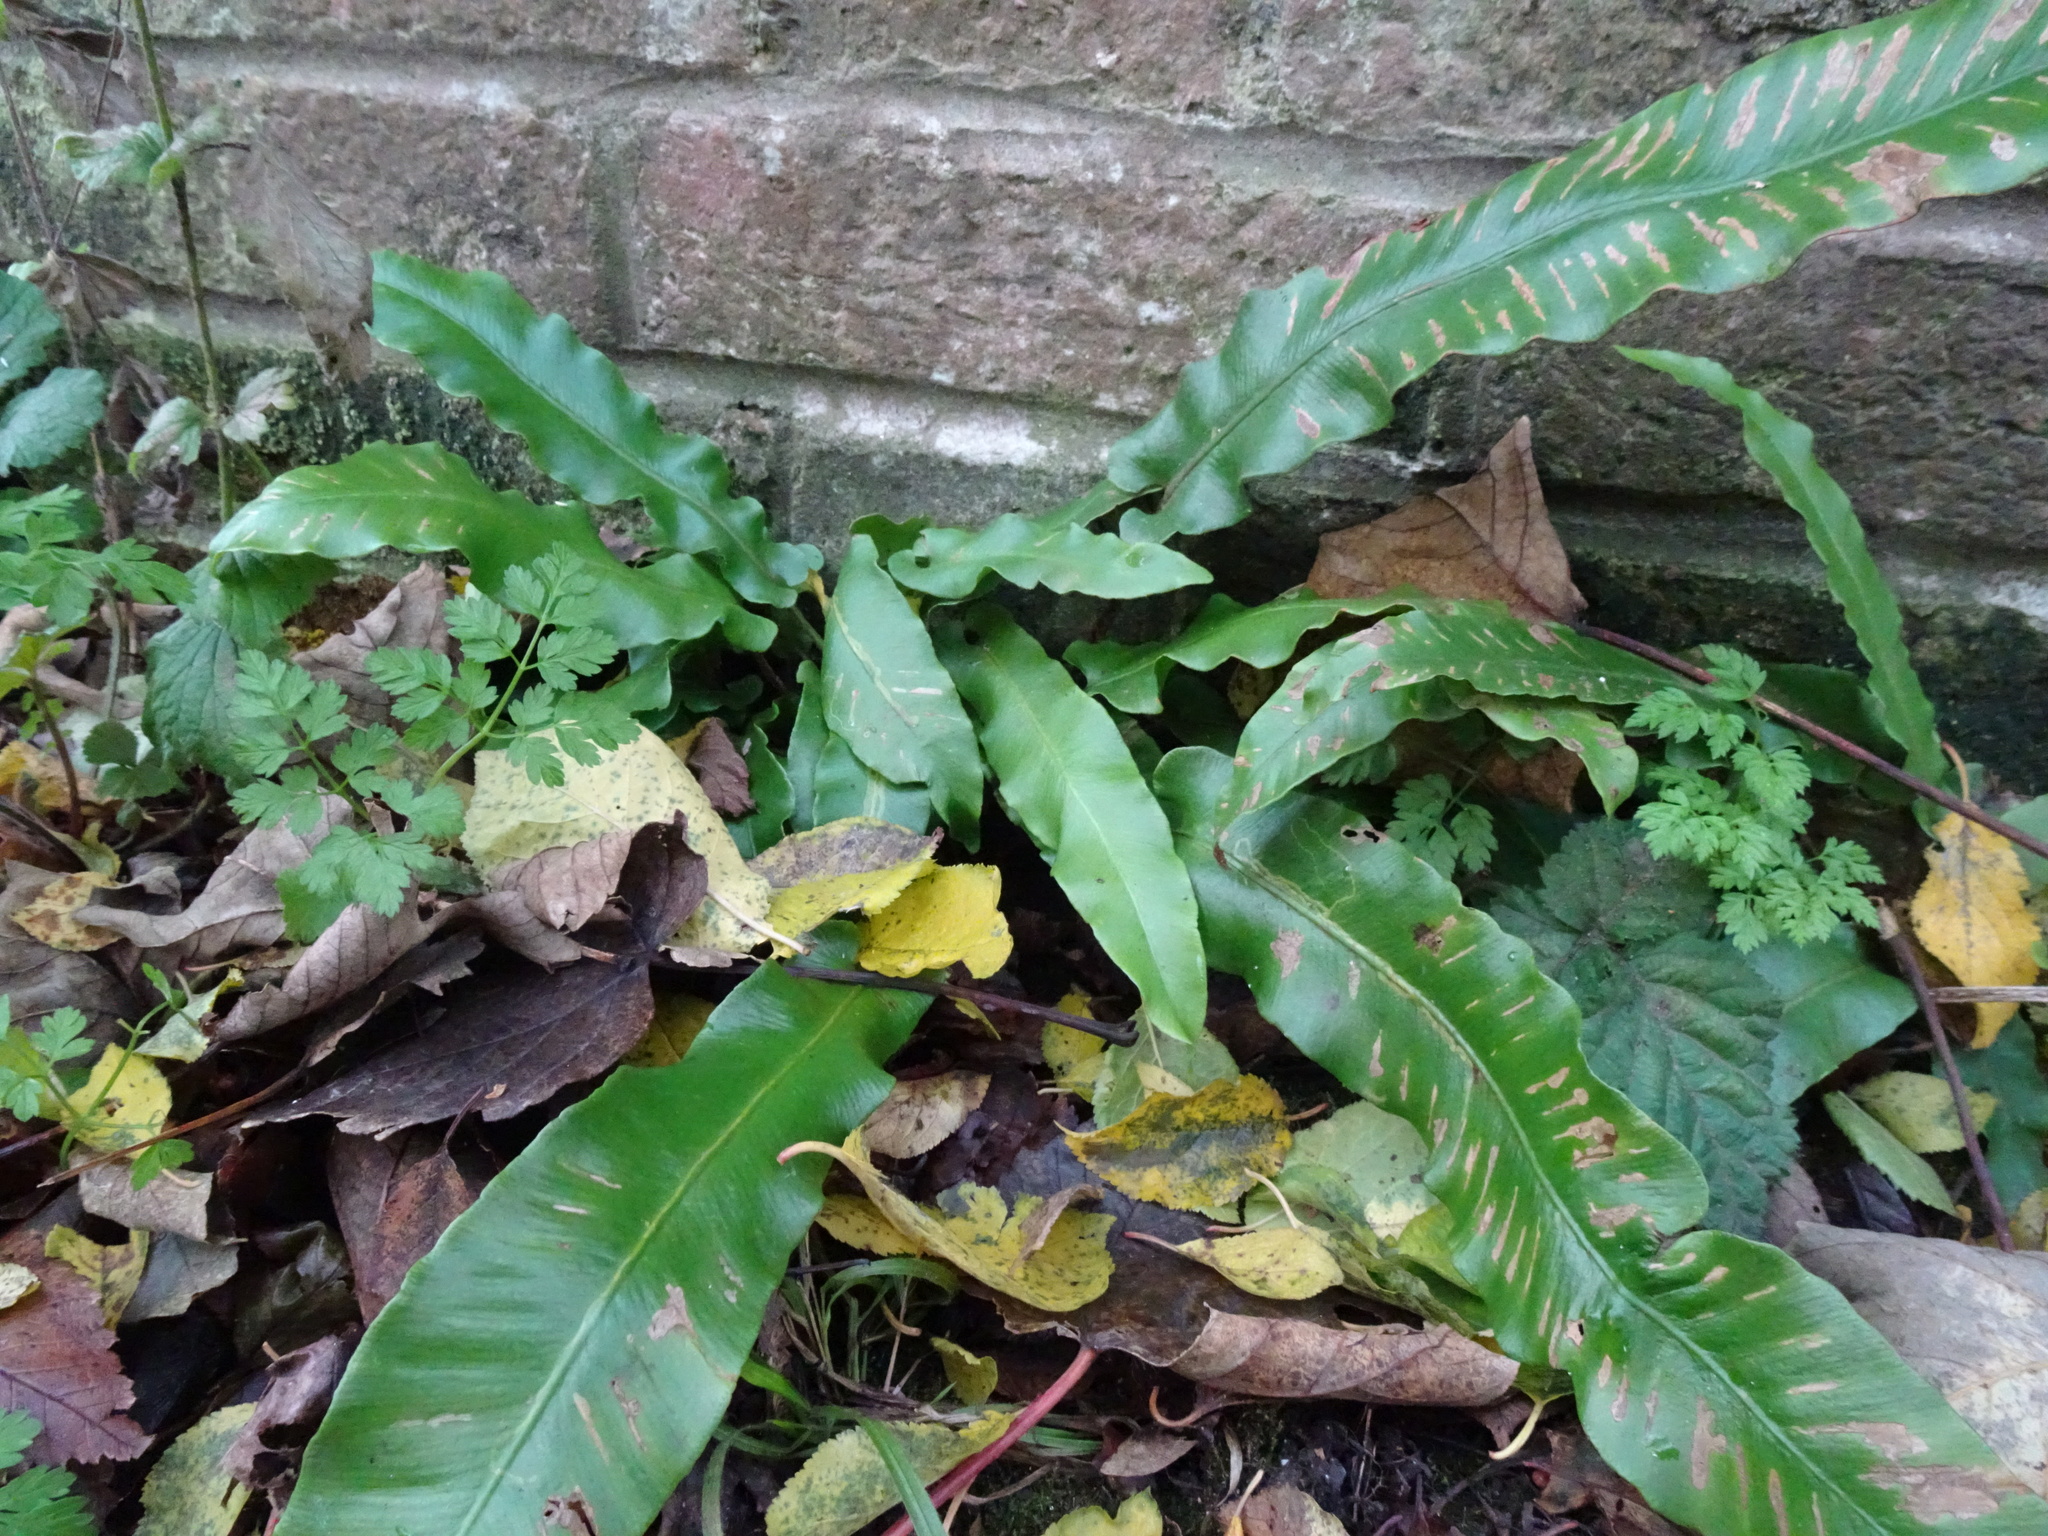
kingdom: Plantae
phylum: Tracheophyta
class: Polypodiopsida
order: Polypodiales
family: Aspleniaceae
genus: Asplenium
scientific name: Asplenium scolopendrium
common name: Hart's-tongue fern
